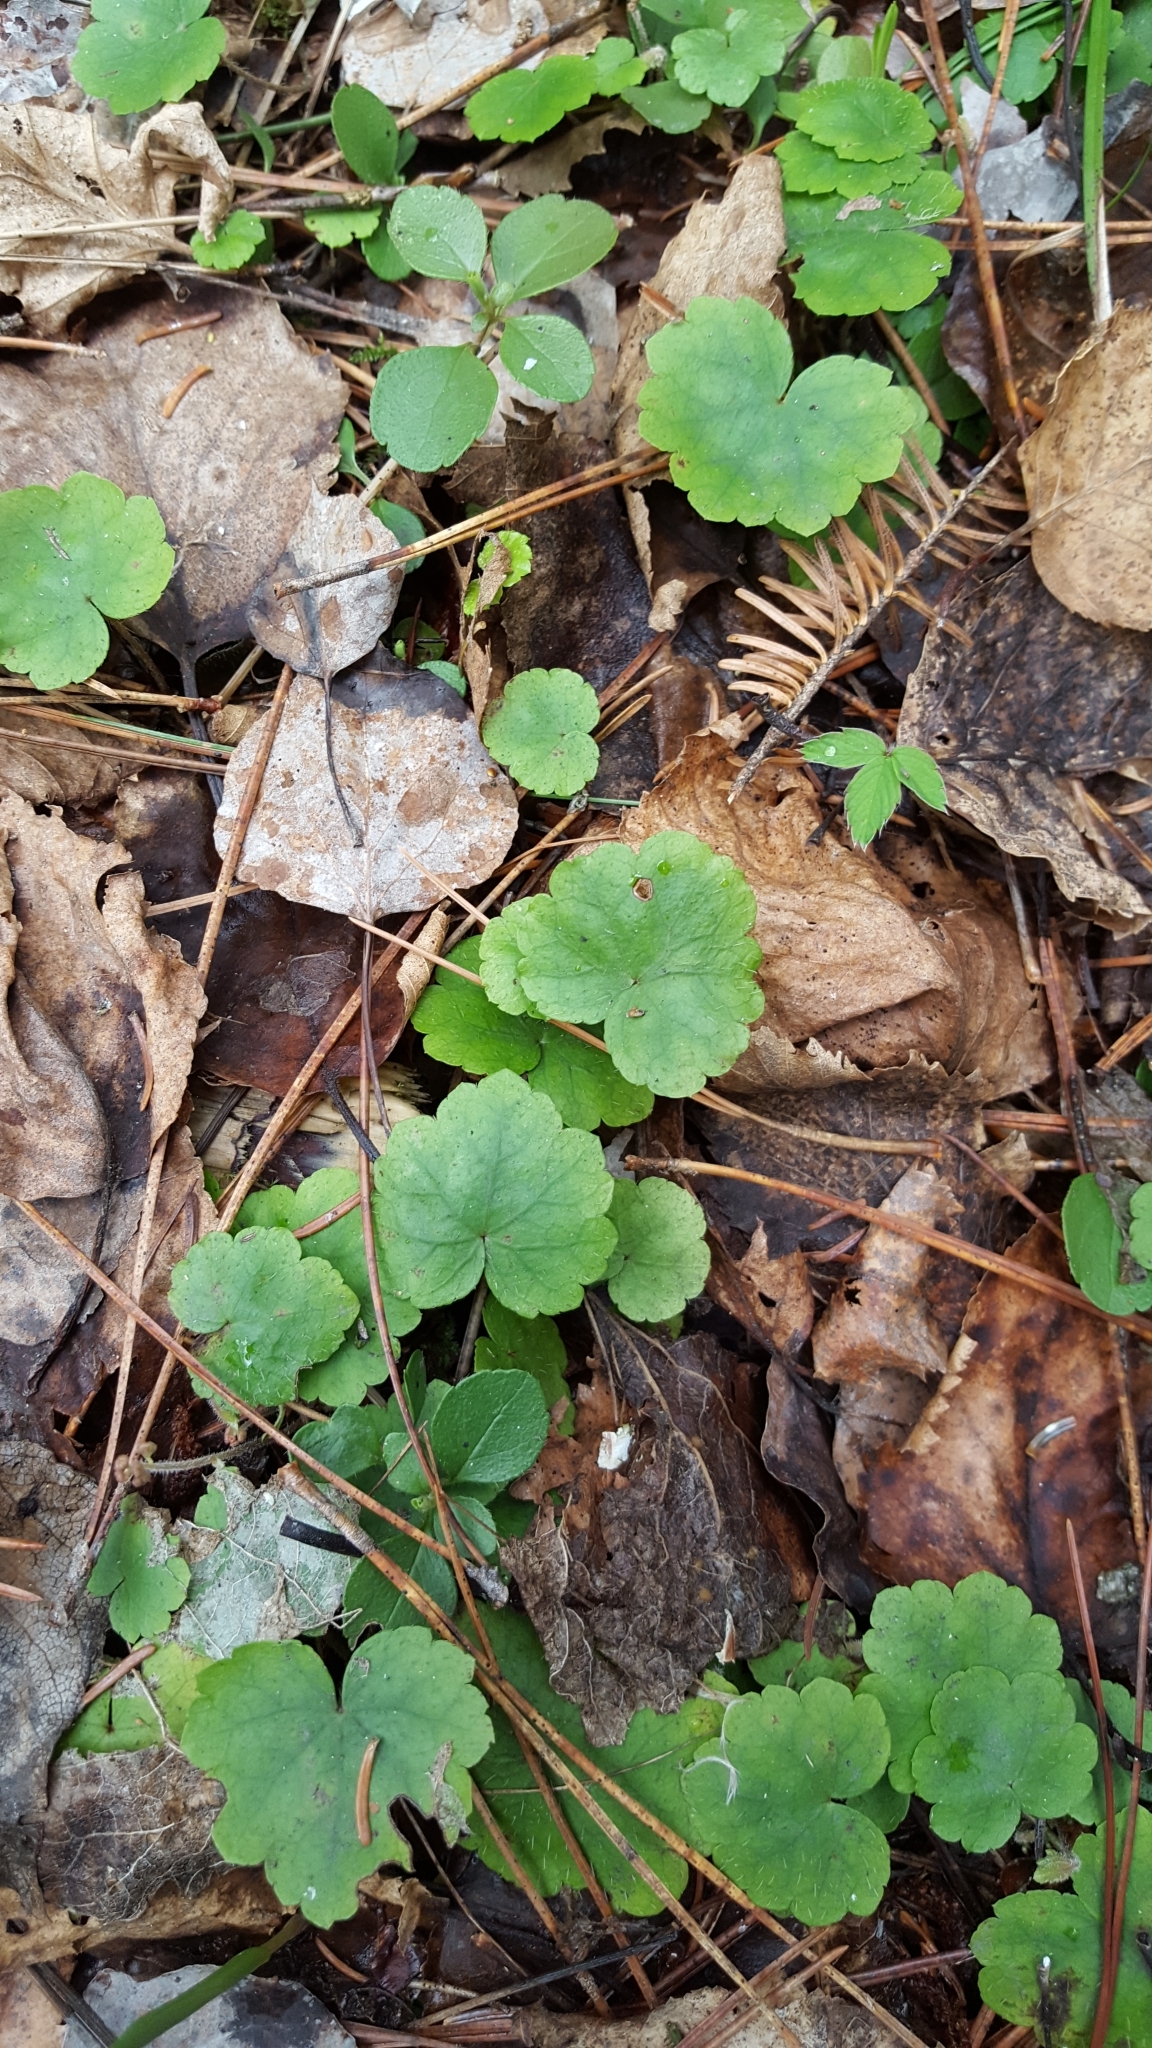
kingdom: Plantae
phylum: Tracheophyta
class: Magnoliopsida
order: Saxifragales
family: Saxifragaceae
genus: Mitella
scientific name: Mitella nuda
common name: Bare-stemmed bishop's-cap
